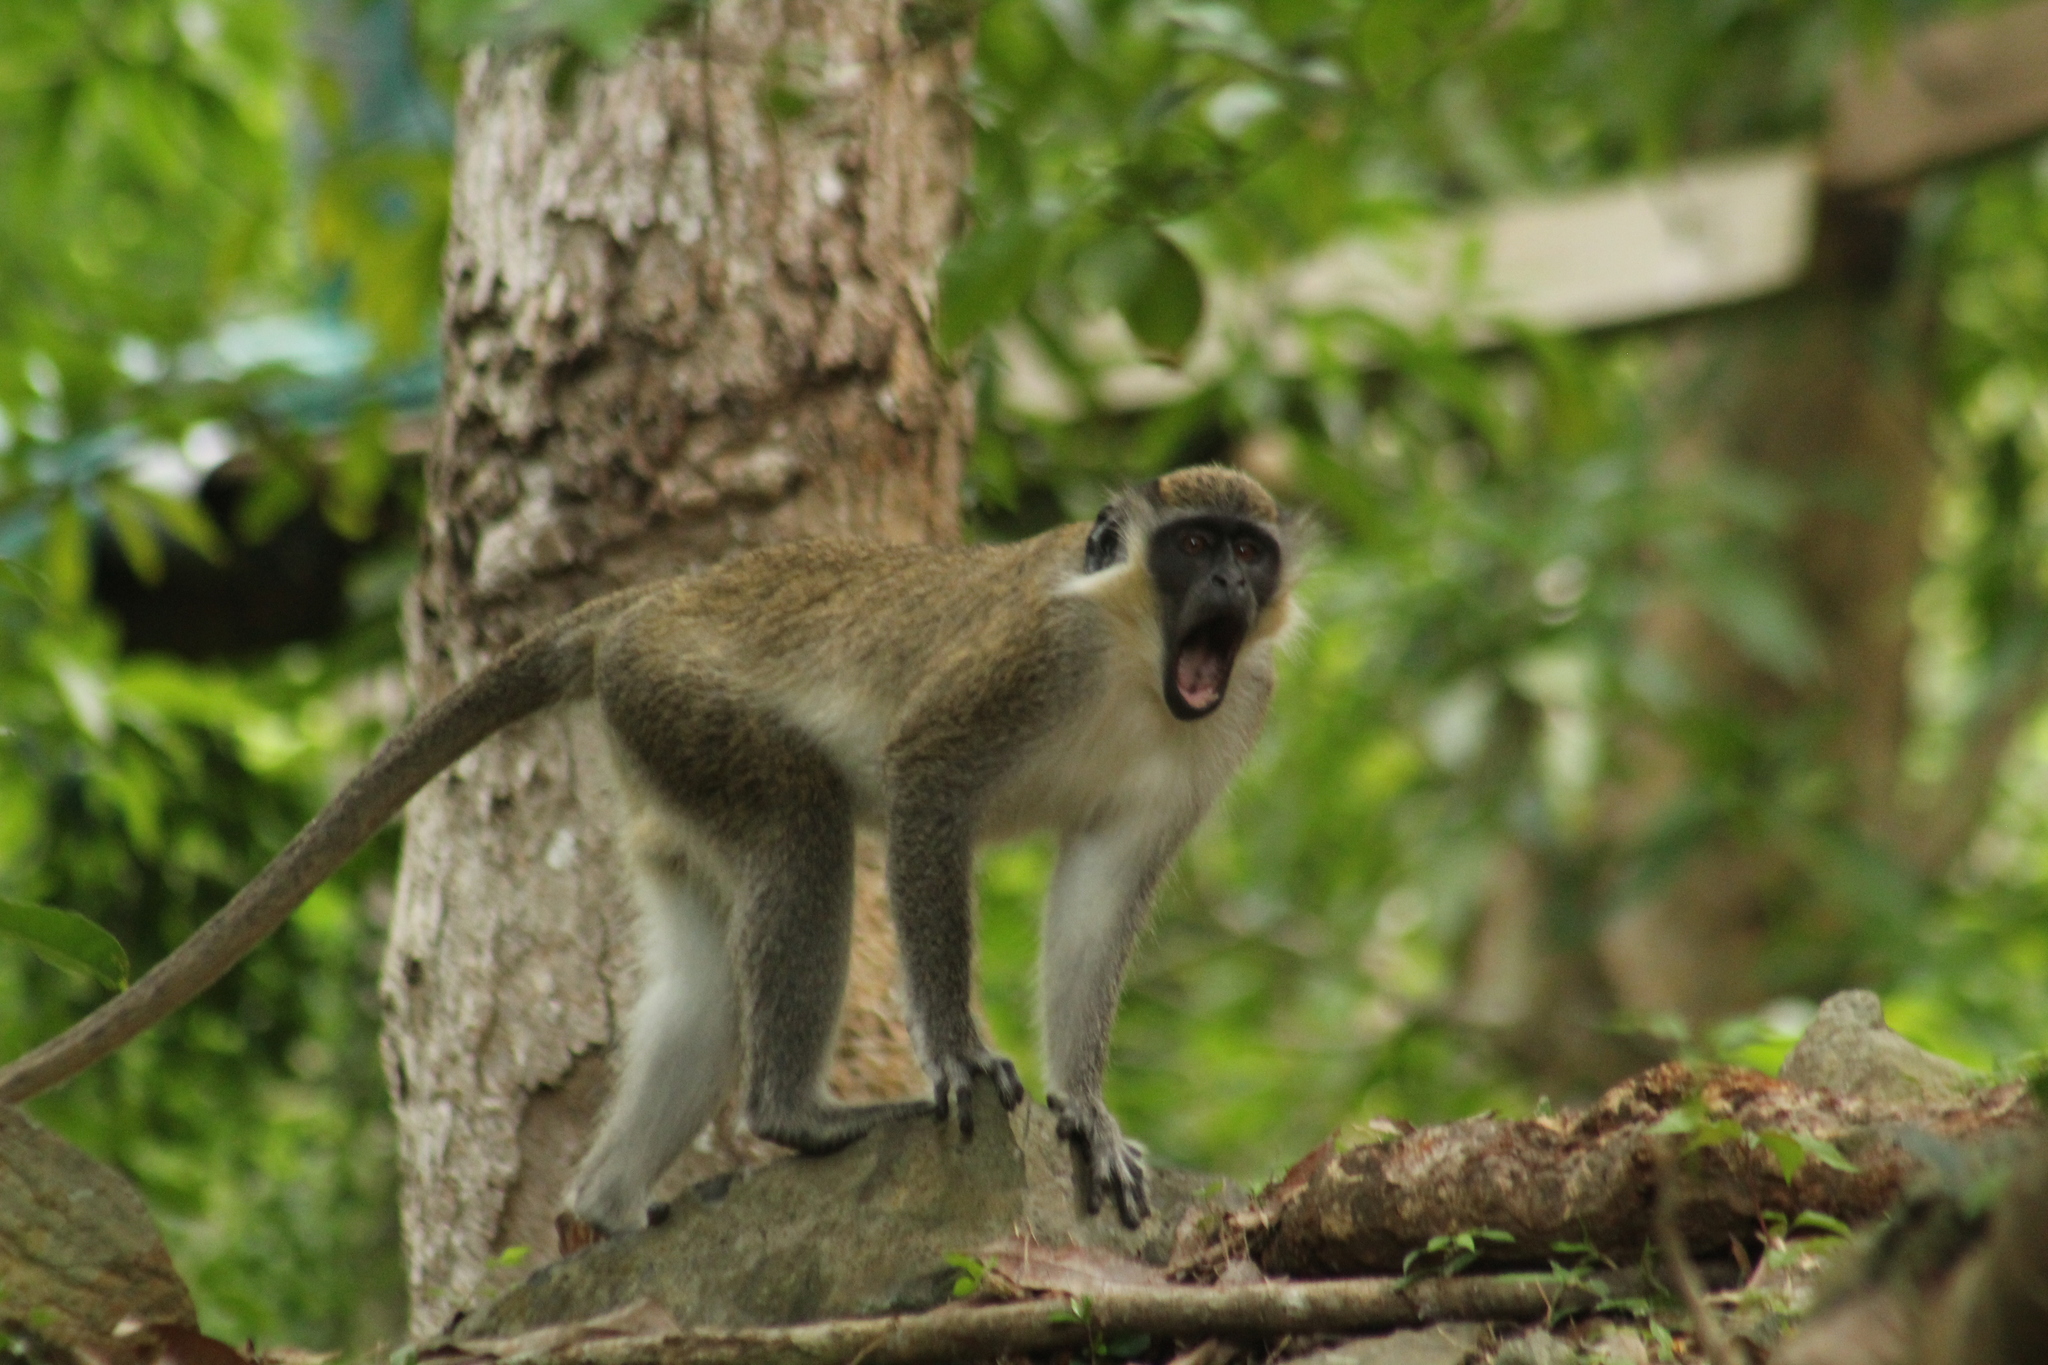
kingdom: Animalia
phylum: Chordata
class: Mammalia
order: Primates
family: Cercopithecidae
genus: Chlorocebus
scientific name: Chlorocebus sabaeus
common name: Green monkey
